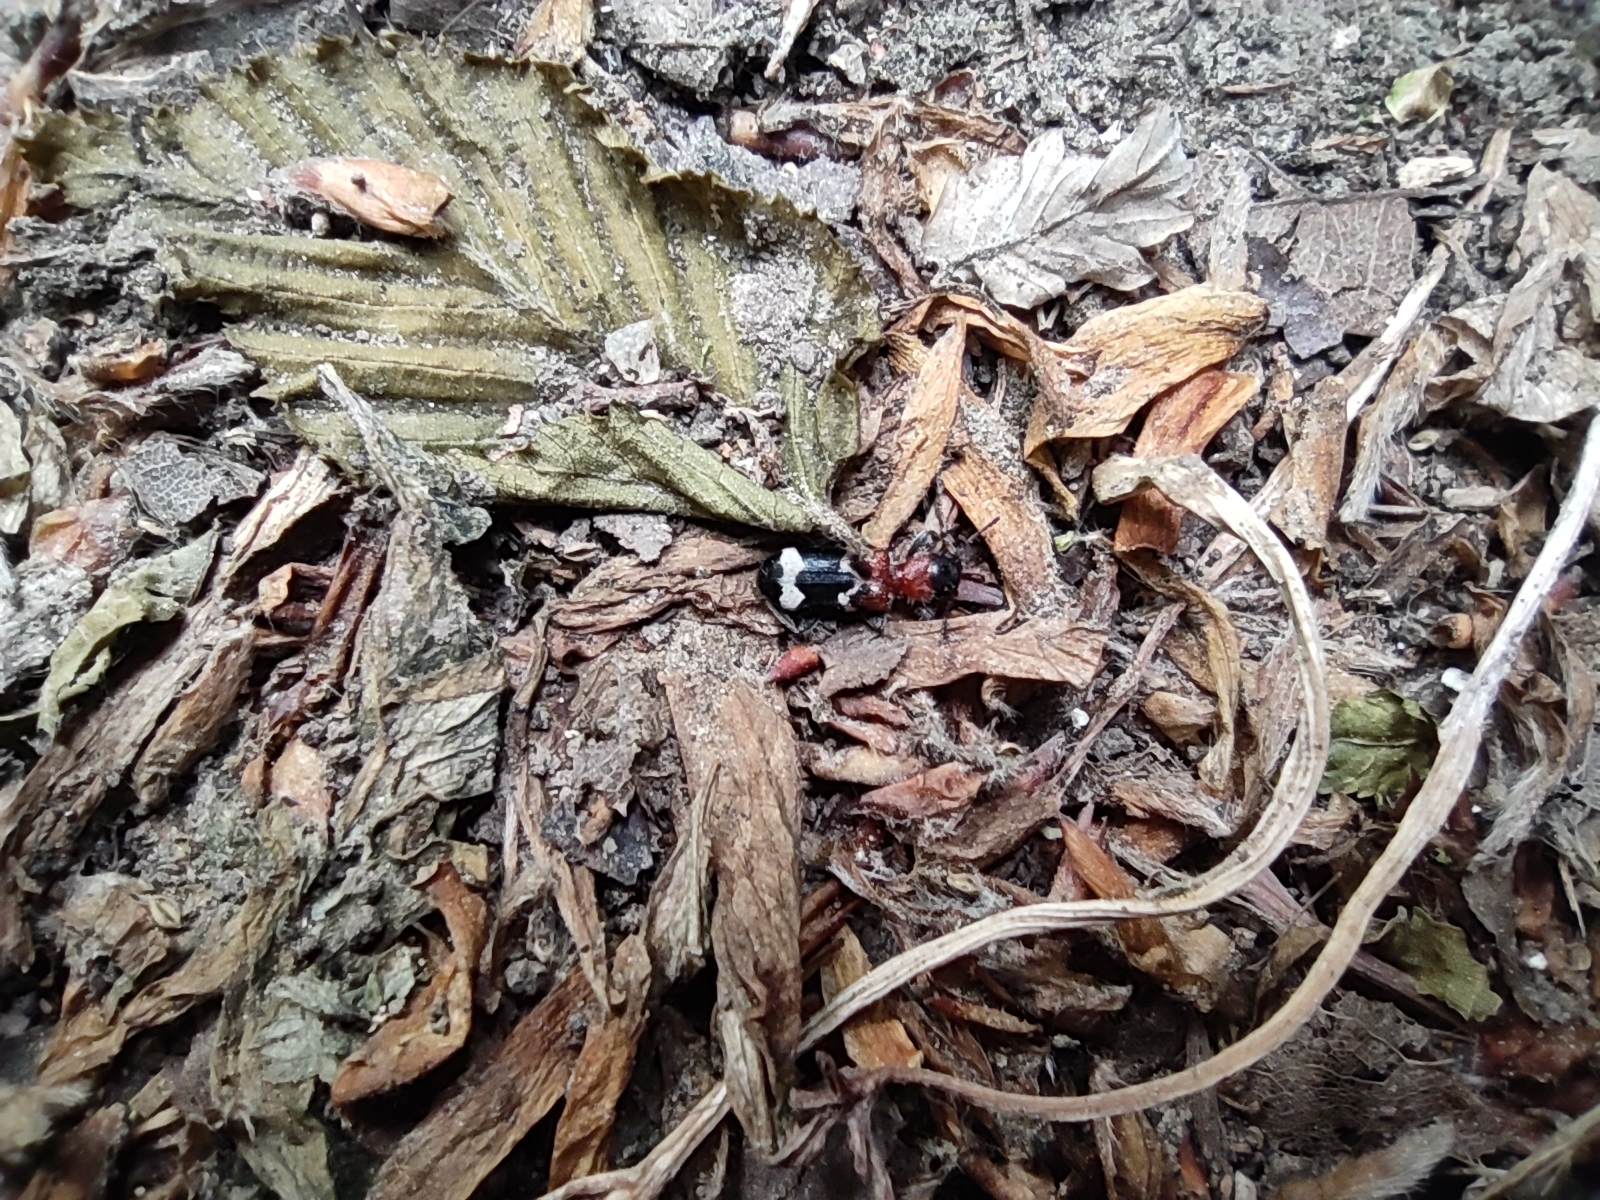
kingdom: Animalia
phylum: Arthropoda
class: Insecta
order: Coleoptera
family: Cleridae
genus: Thanasimus
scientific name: Thanasimus formicarius
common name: Ant beetle
